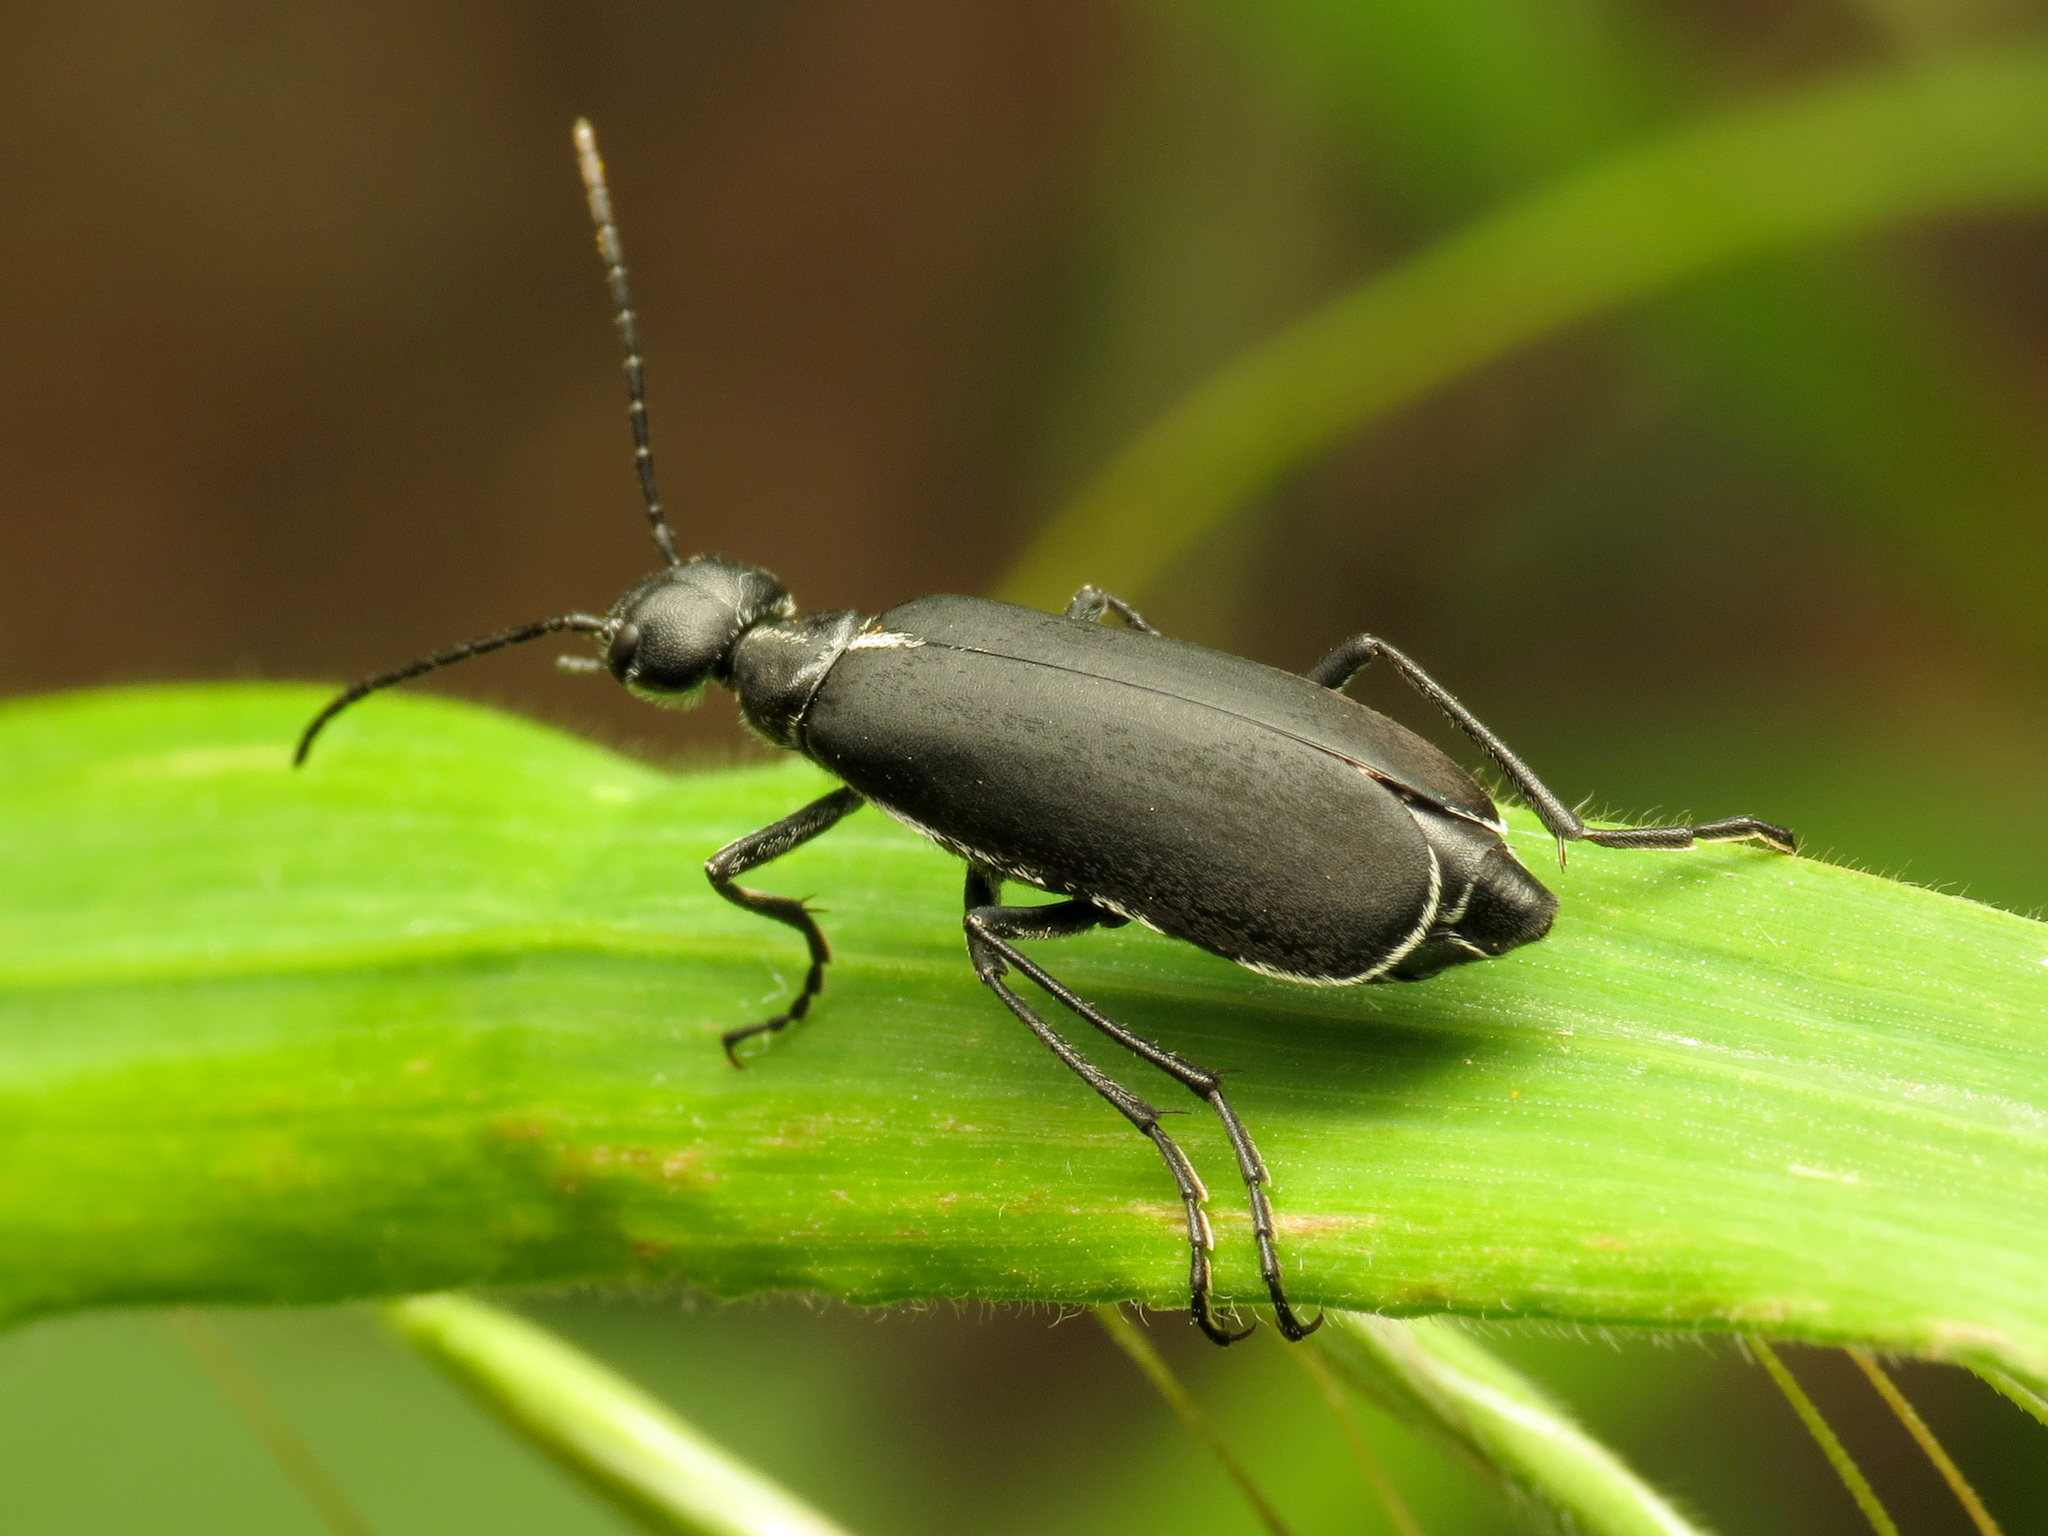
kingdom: Animalia
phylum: Arthropoda
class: Insecta
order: Coleoptera
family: Meloidae
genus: Epicauta
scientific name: Epicauta cinctipennis
